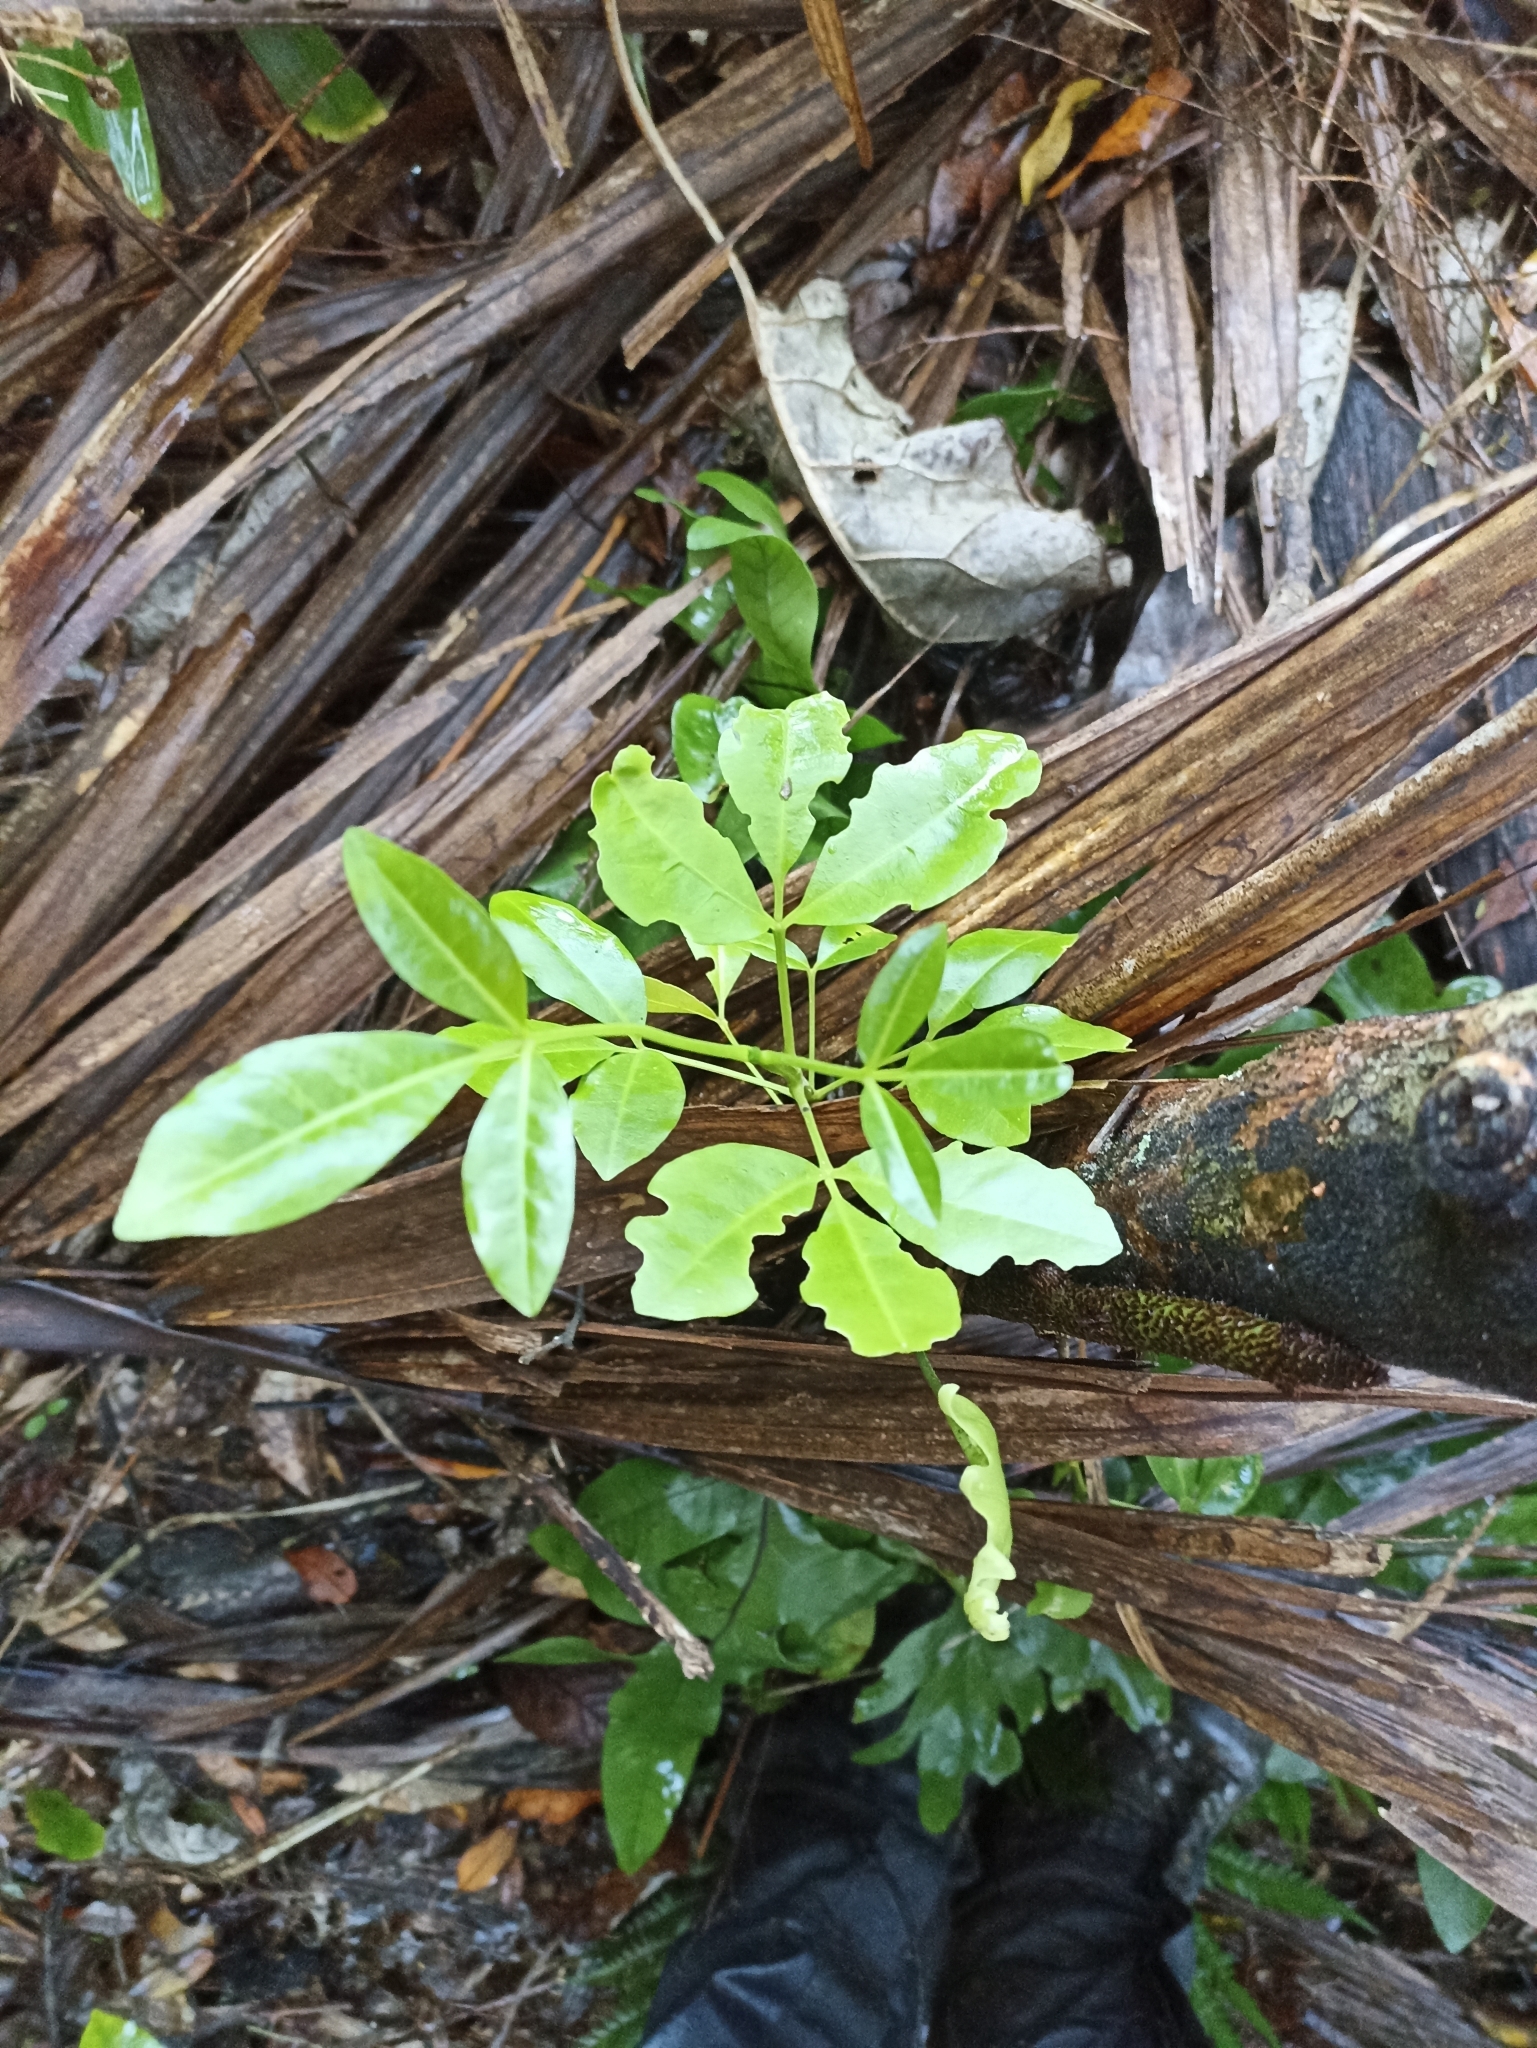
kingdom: Plantae
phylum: Tracheophyta
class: Magnoliopsida
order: Sapindales
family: Rutaceae
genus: Melicope
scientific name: Melicope ternata
